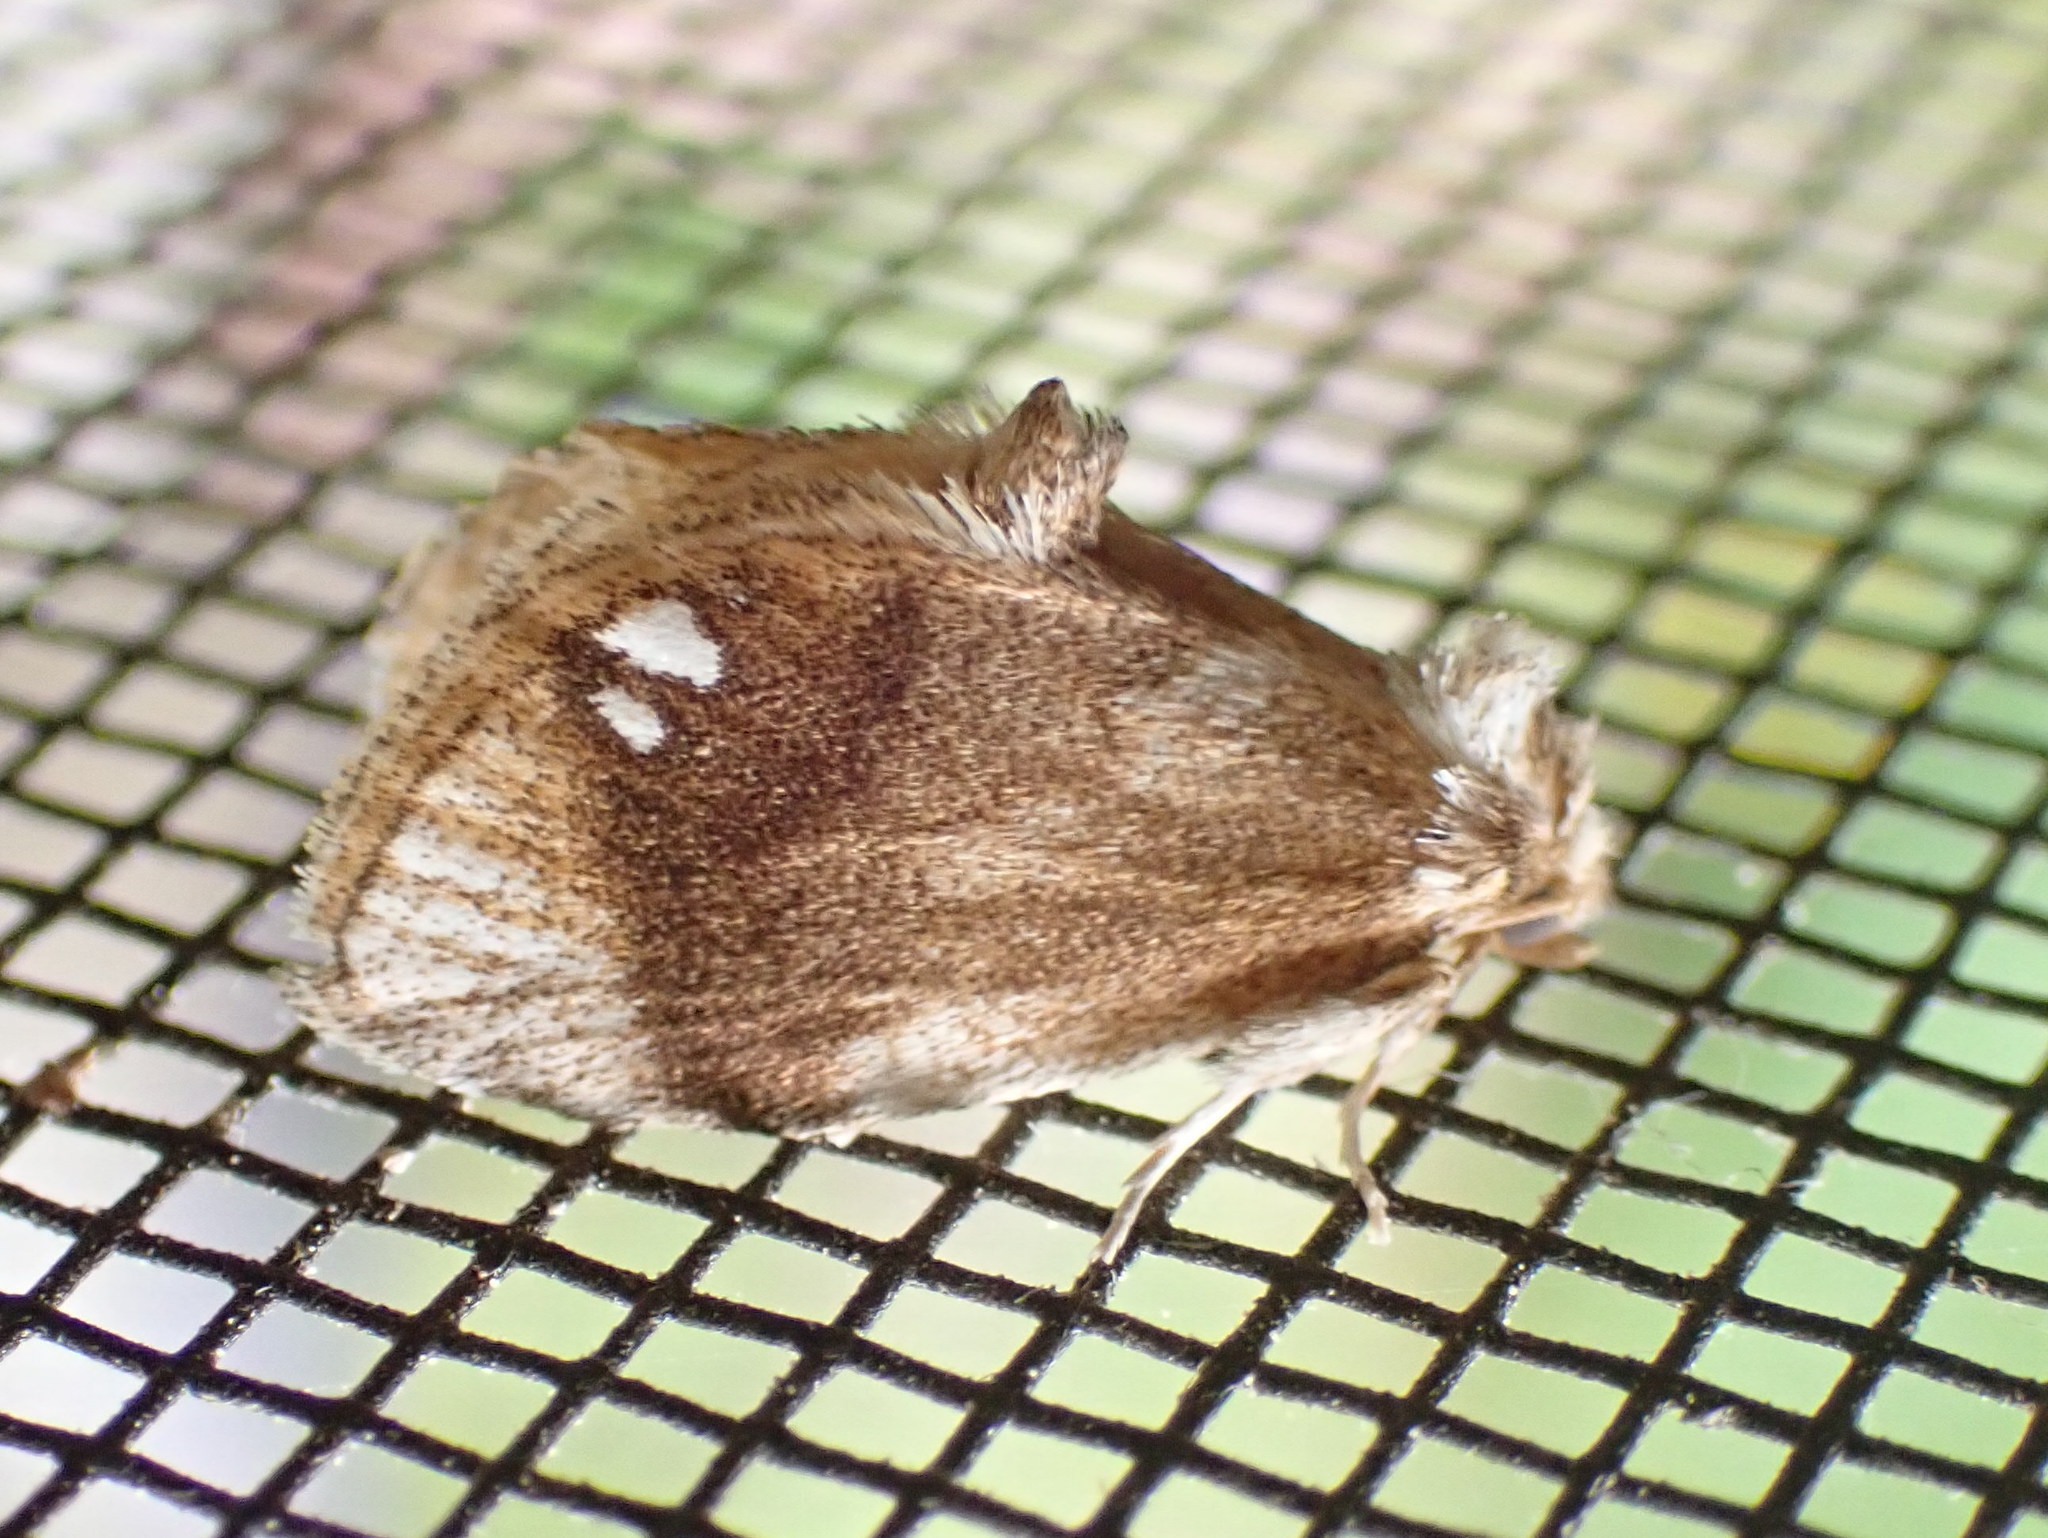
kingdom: Animalia
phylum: Arthropoda
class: Insecta
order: Lepidoptera
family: Limacodidae
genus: Packardia
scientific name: Packardia geminata
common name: Jeweled tailed slug moth
